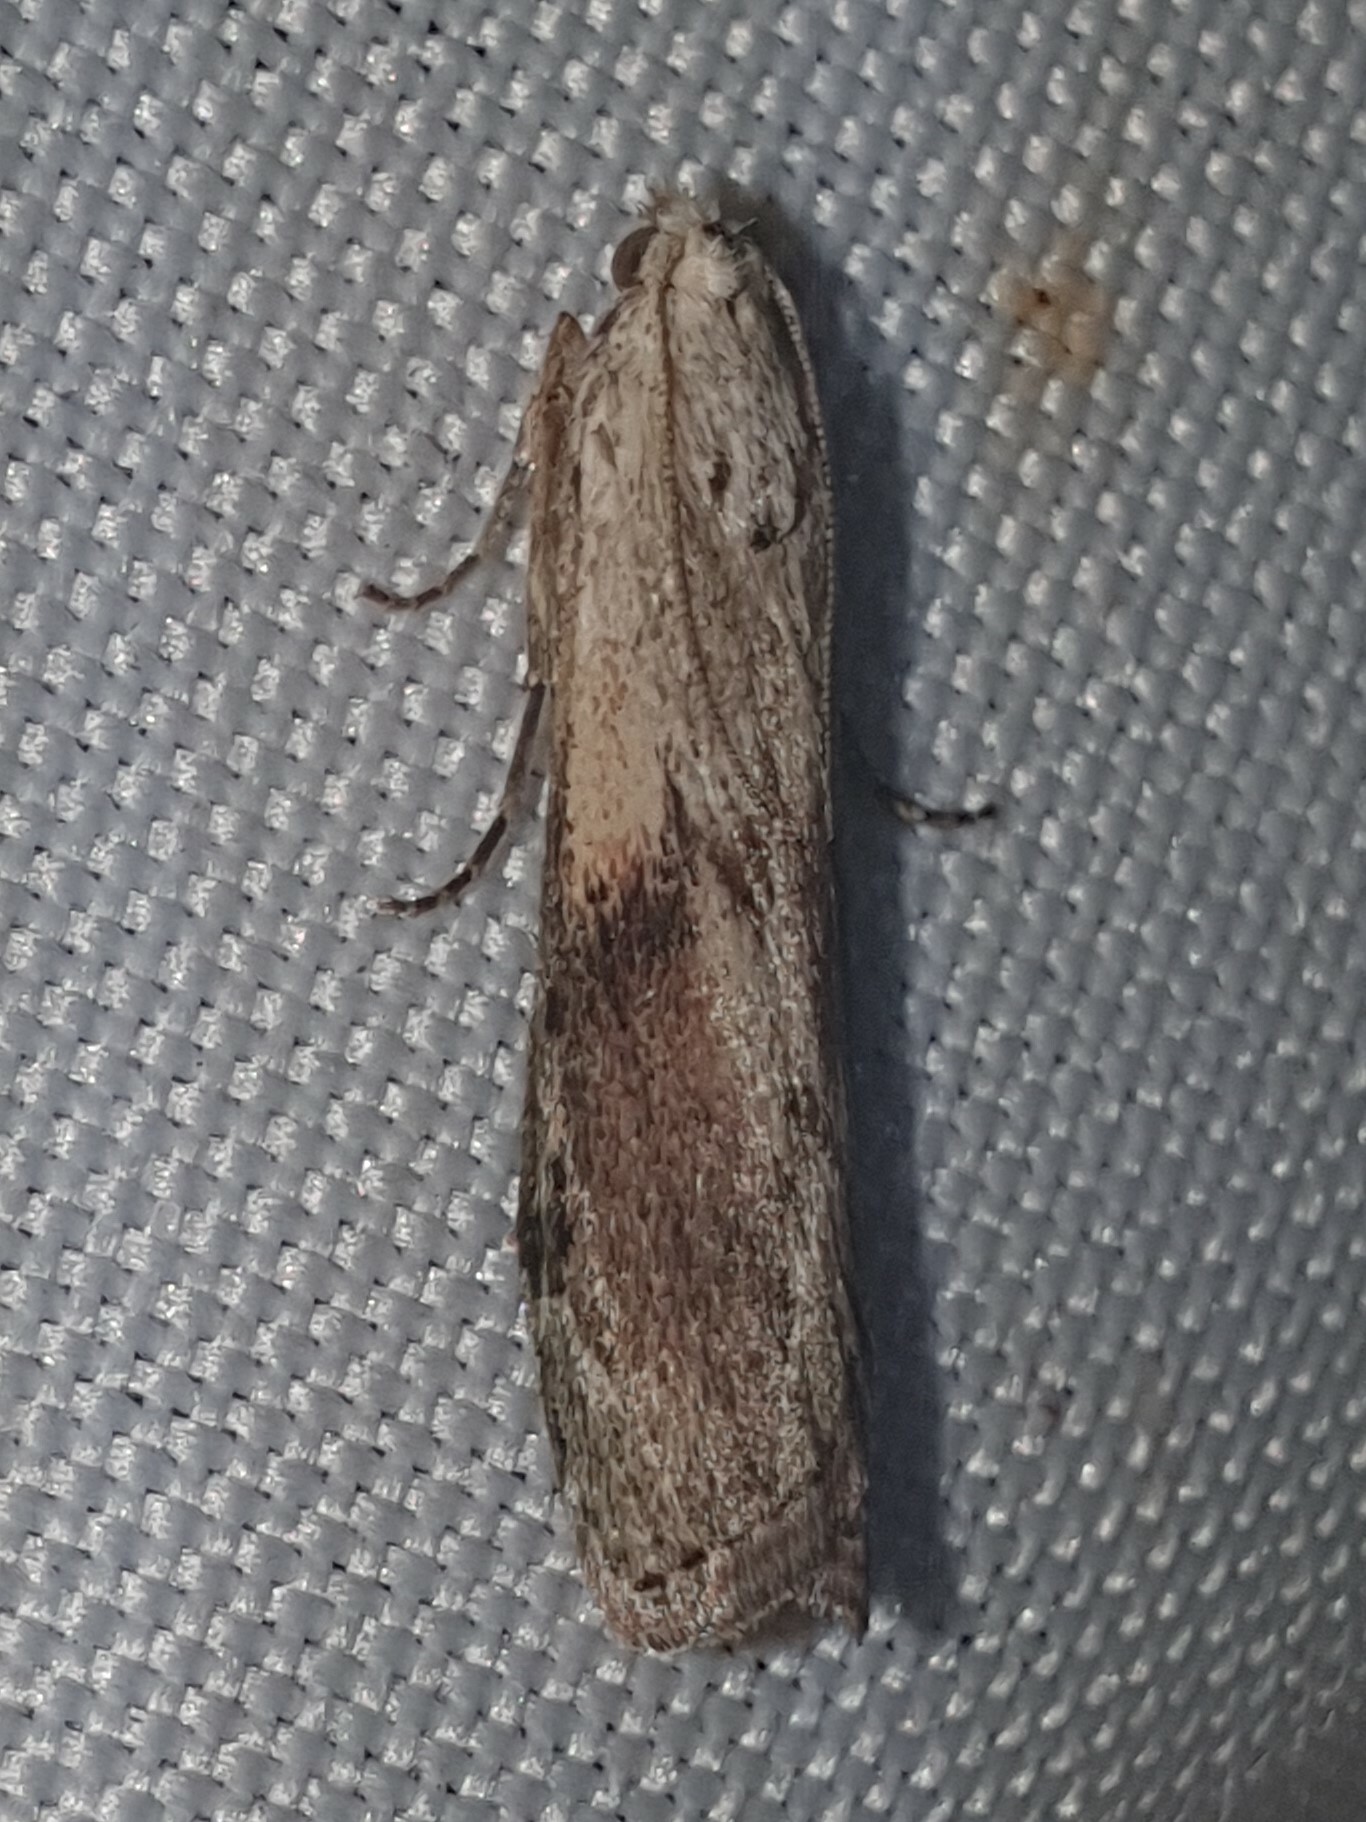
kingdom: Animalia
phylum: Arthropoda
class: Insecta
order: Lepidoptera
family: Pyralidae
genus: Aphomia
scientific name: Aphomia sociella
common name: Bee moth
